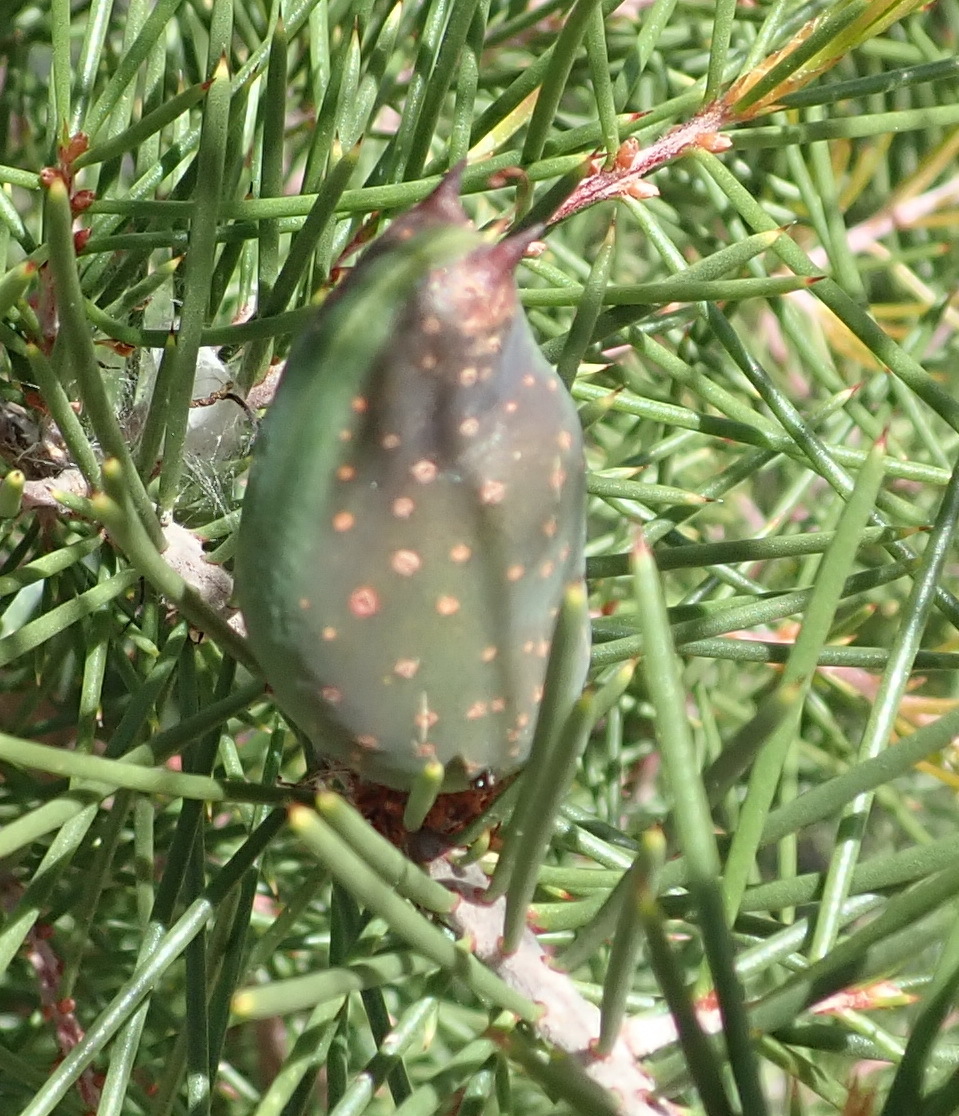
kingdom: Plantae
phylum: Tracheophyta
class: Magnoliopsida
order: Proteales
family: Proteaceae
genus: Hakea
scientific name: Hakea sericea
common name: Needle bush
